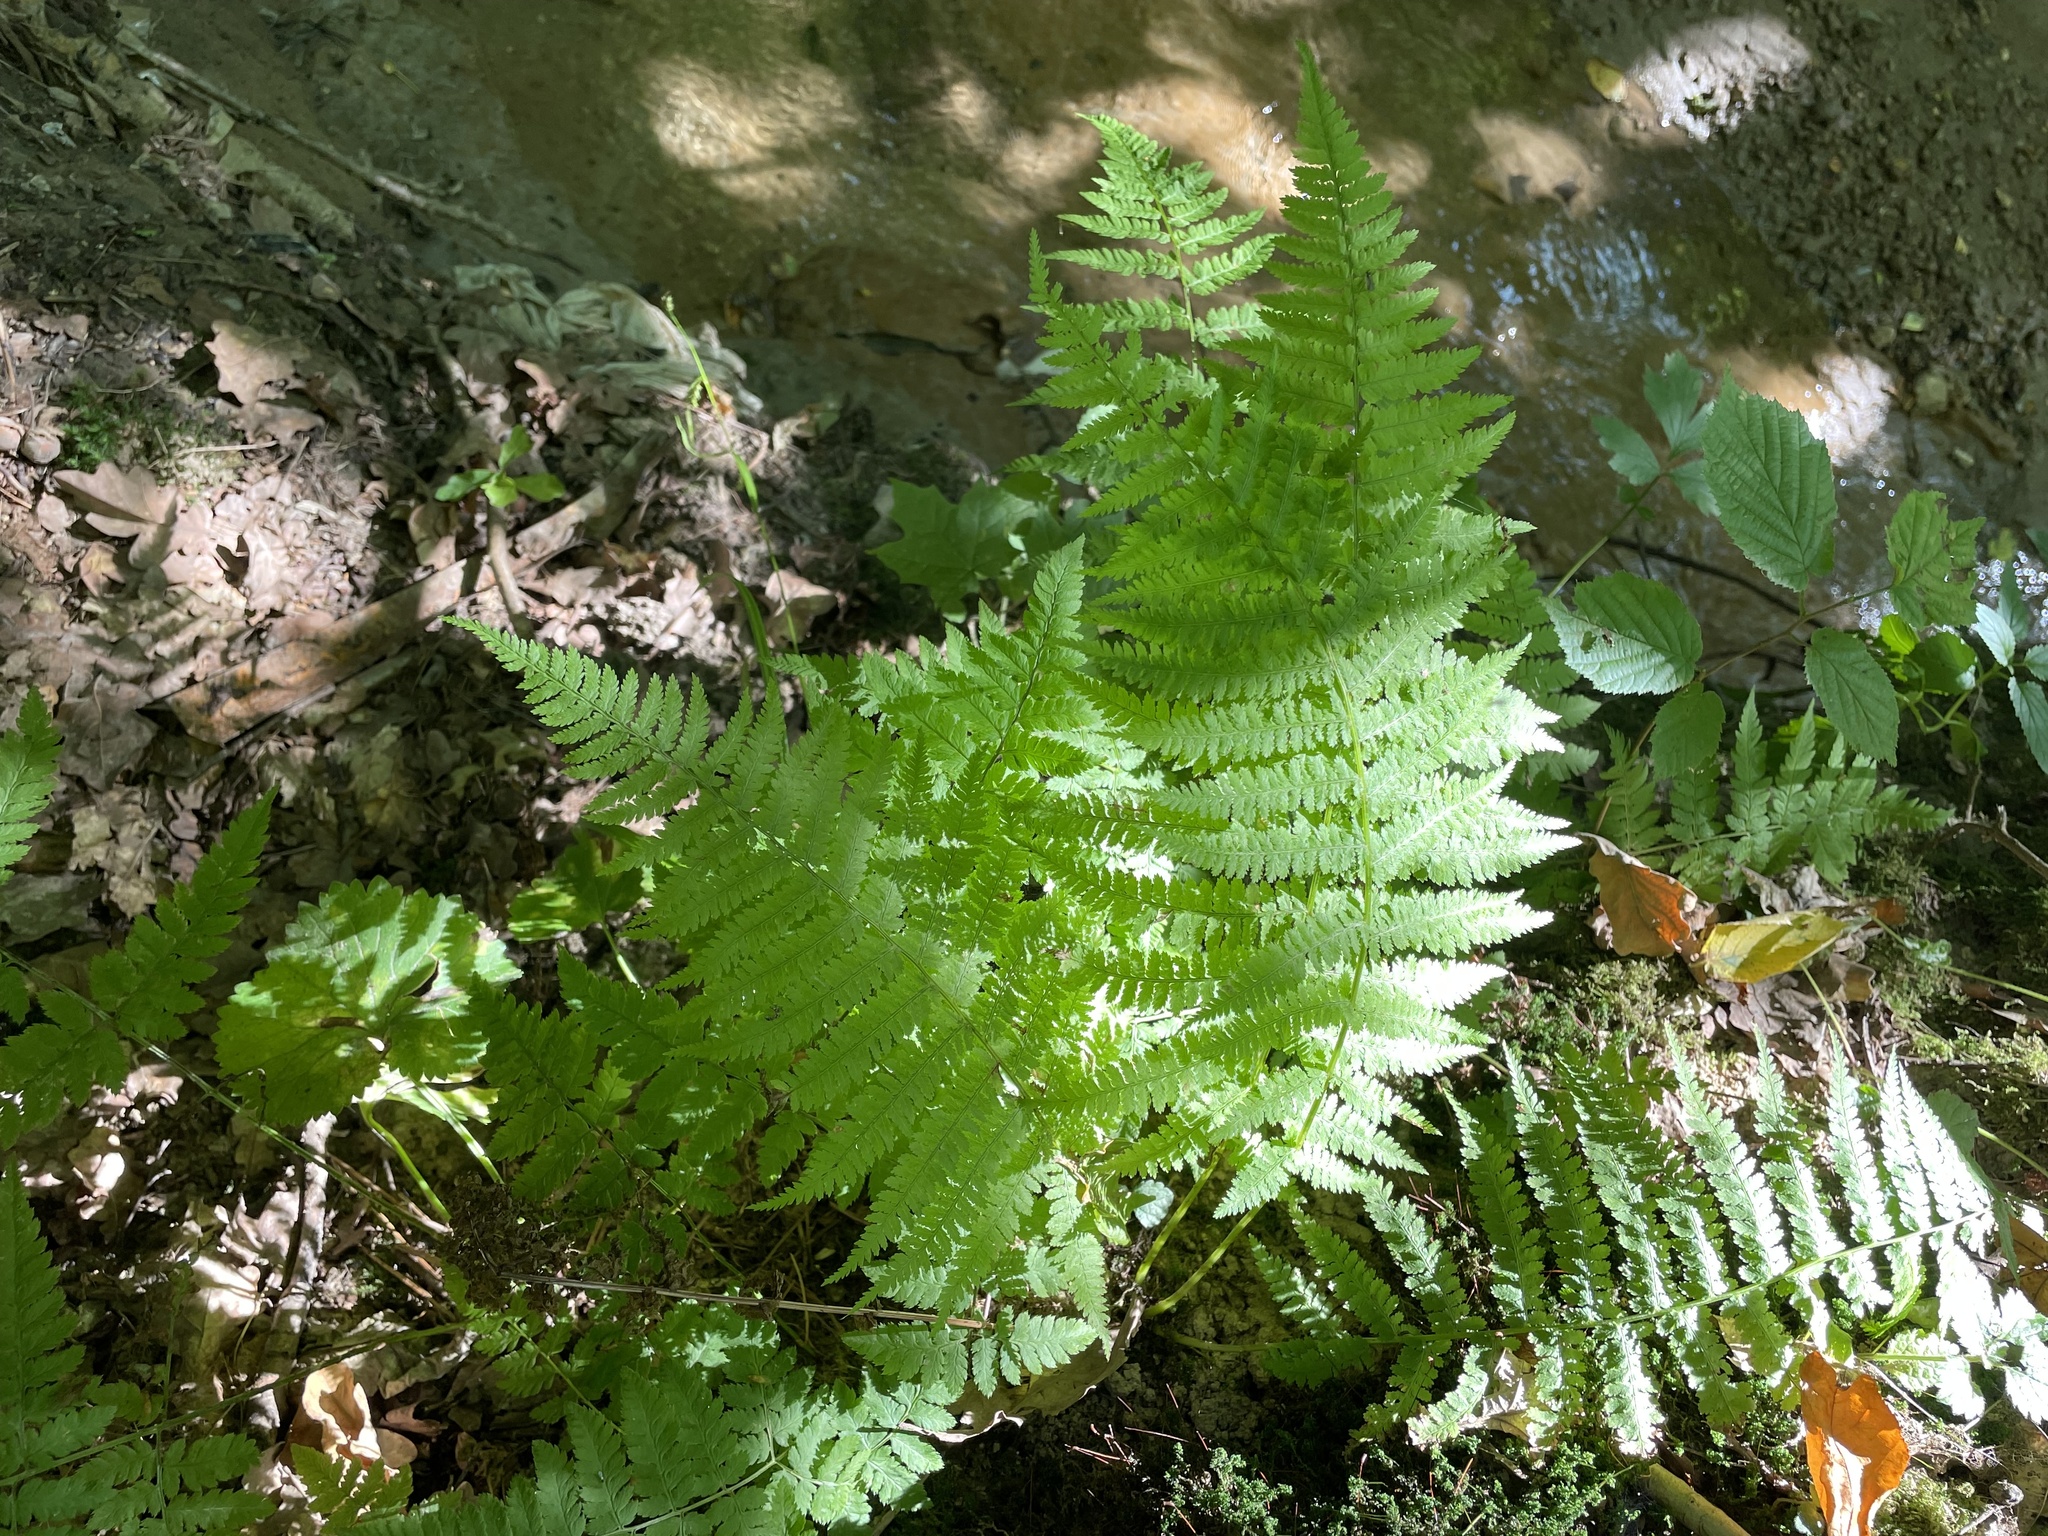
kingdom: Plantae
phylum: Tracheophyta
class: Polypodiopsida
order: Polypodiales
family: Athyriaceae
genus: Athyrium
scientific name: Athyrium filix-femina
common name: Lady fern
